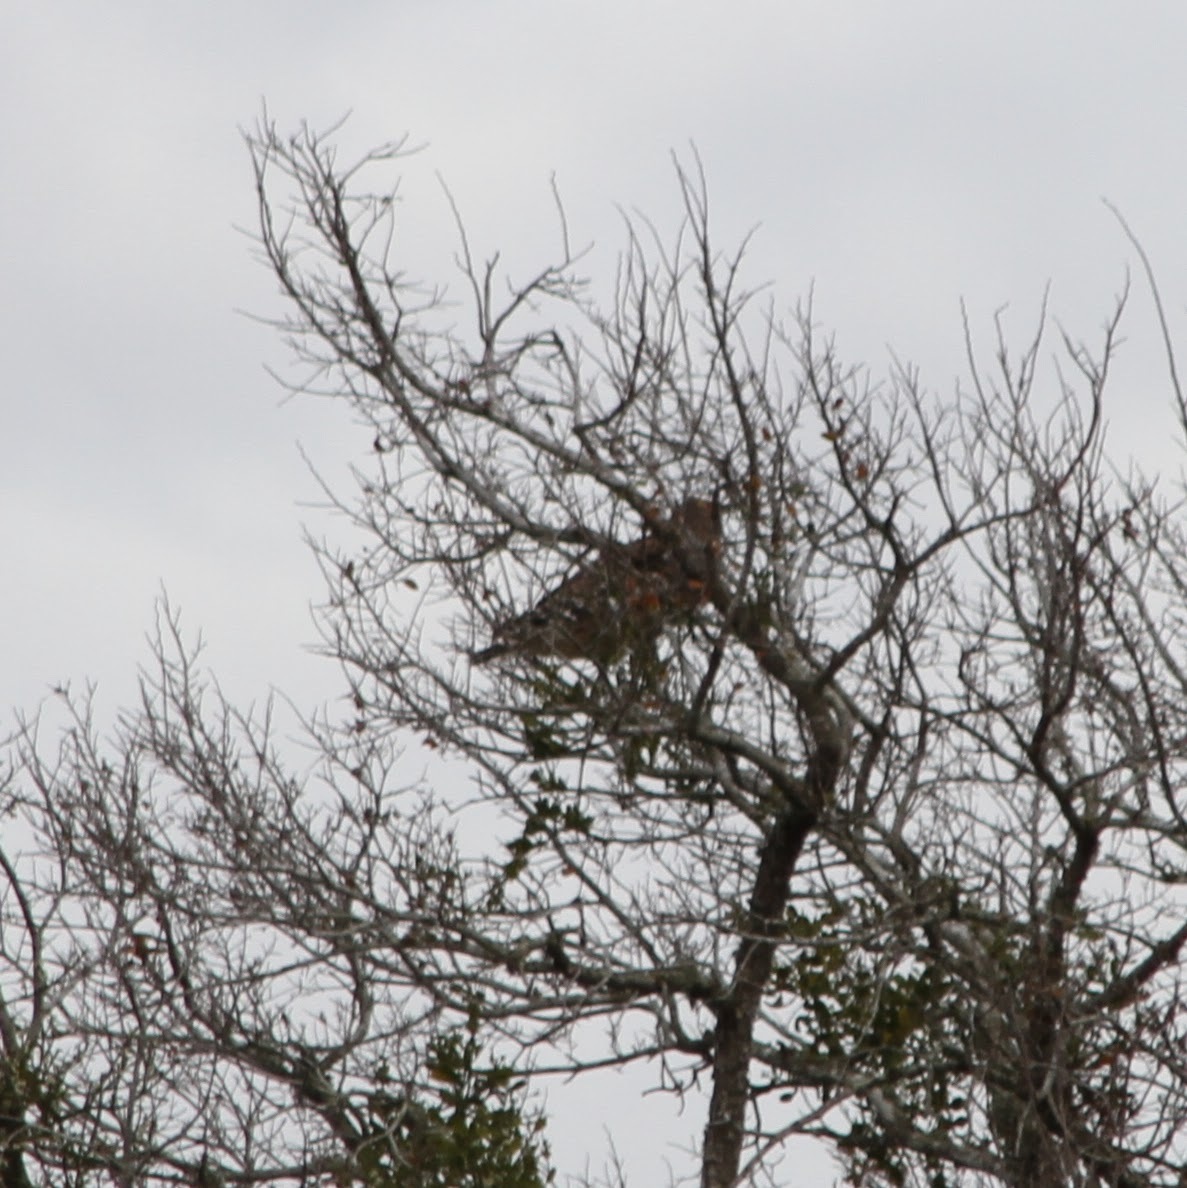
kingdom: Animalia
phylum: Chordata
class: Aves
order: Accipitriformes
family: Accipitridae
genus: Buteo
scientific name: Buteo lineatus
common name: Red-shouldered hawk
